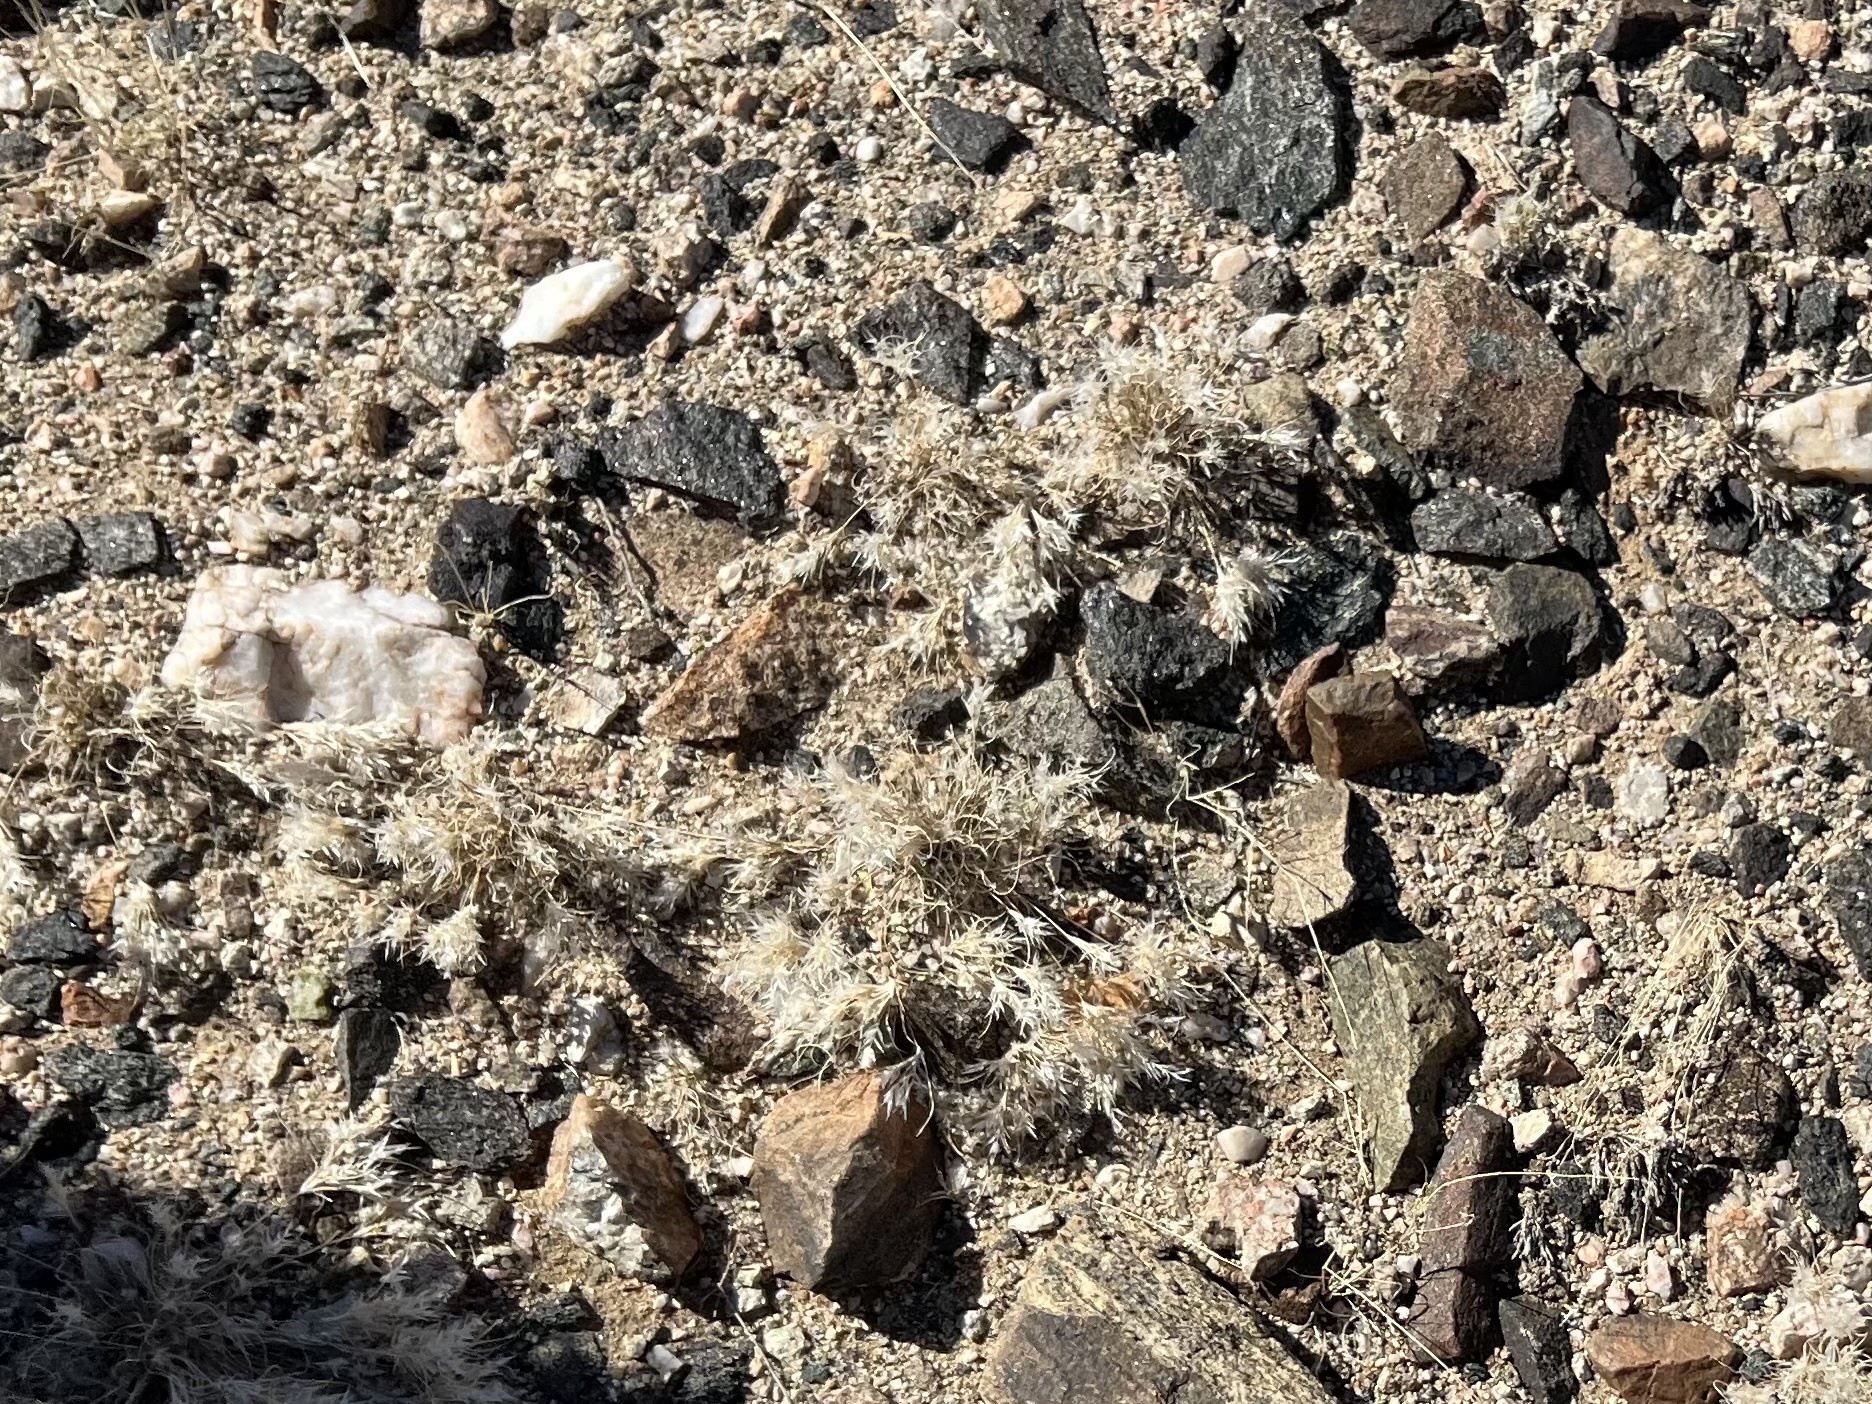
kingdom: Plantae
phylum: Tracheophyta
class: Liliopsida
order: Poales
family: Poaceae
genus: Dasyochloa
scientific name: Dasyochloa pulchella
